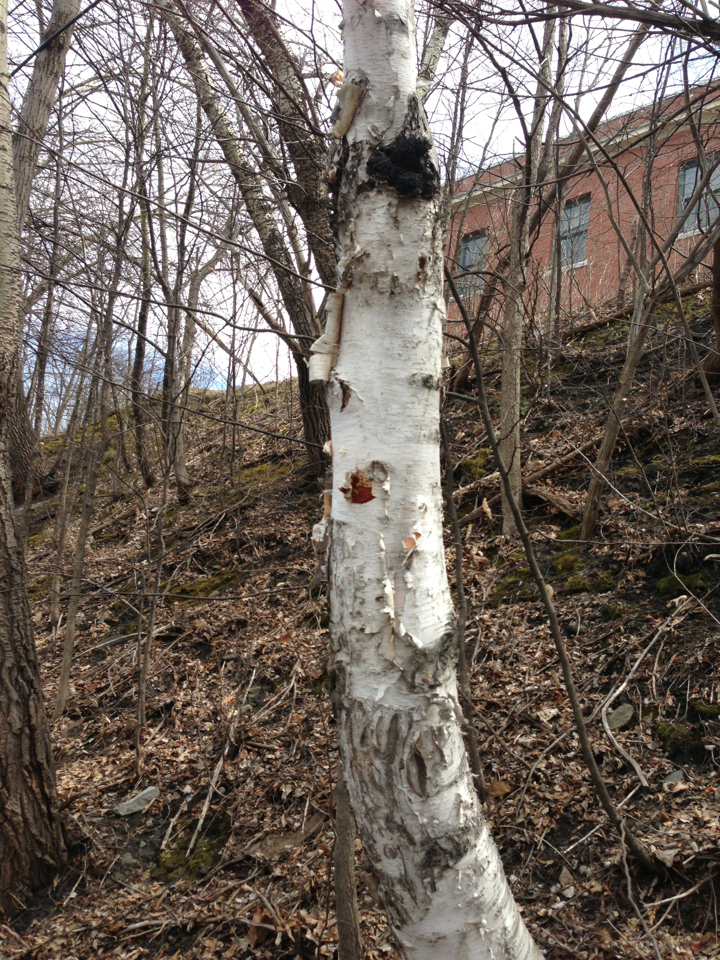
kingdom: Plantae
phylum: Tracheophyta
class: Magnoliopsida
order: Fagales
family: Betulaceae
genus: Betula
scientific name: Betula papyrifera
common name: Paper birch
